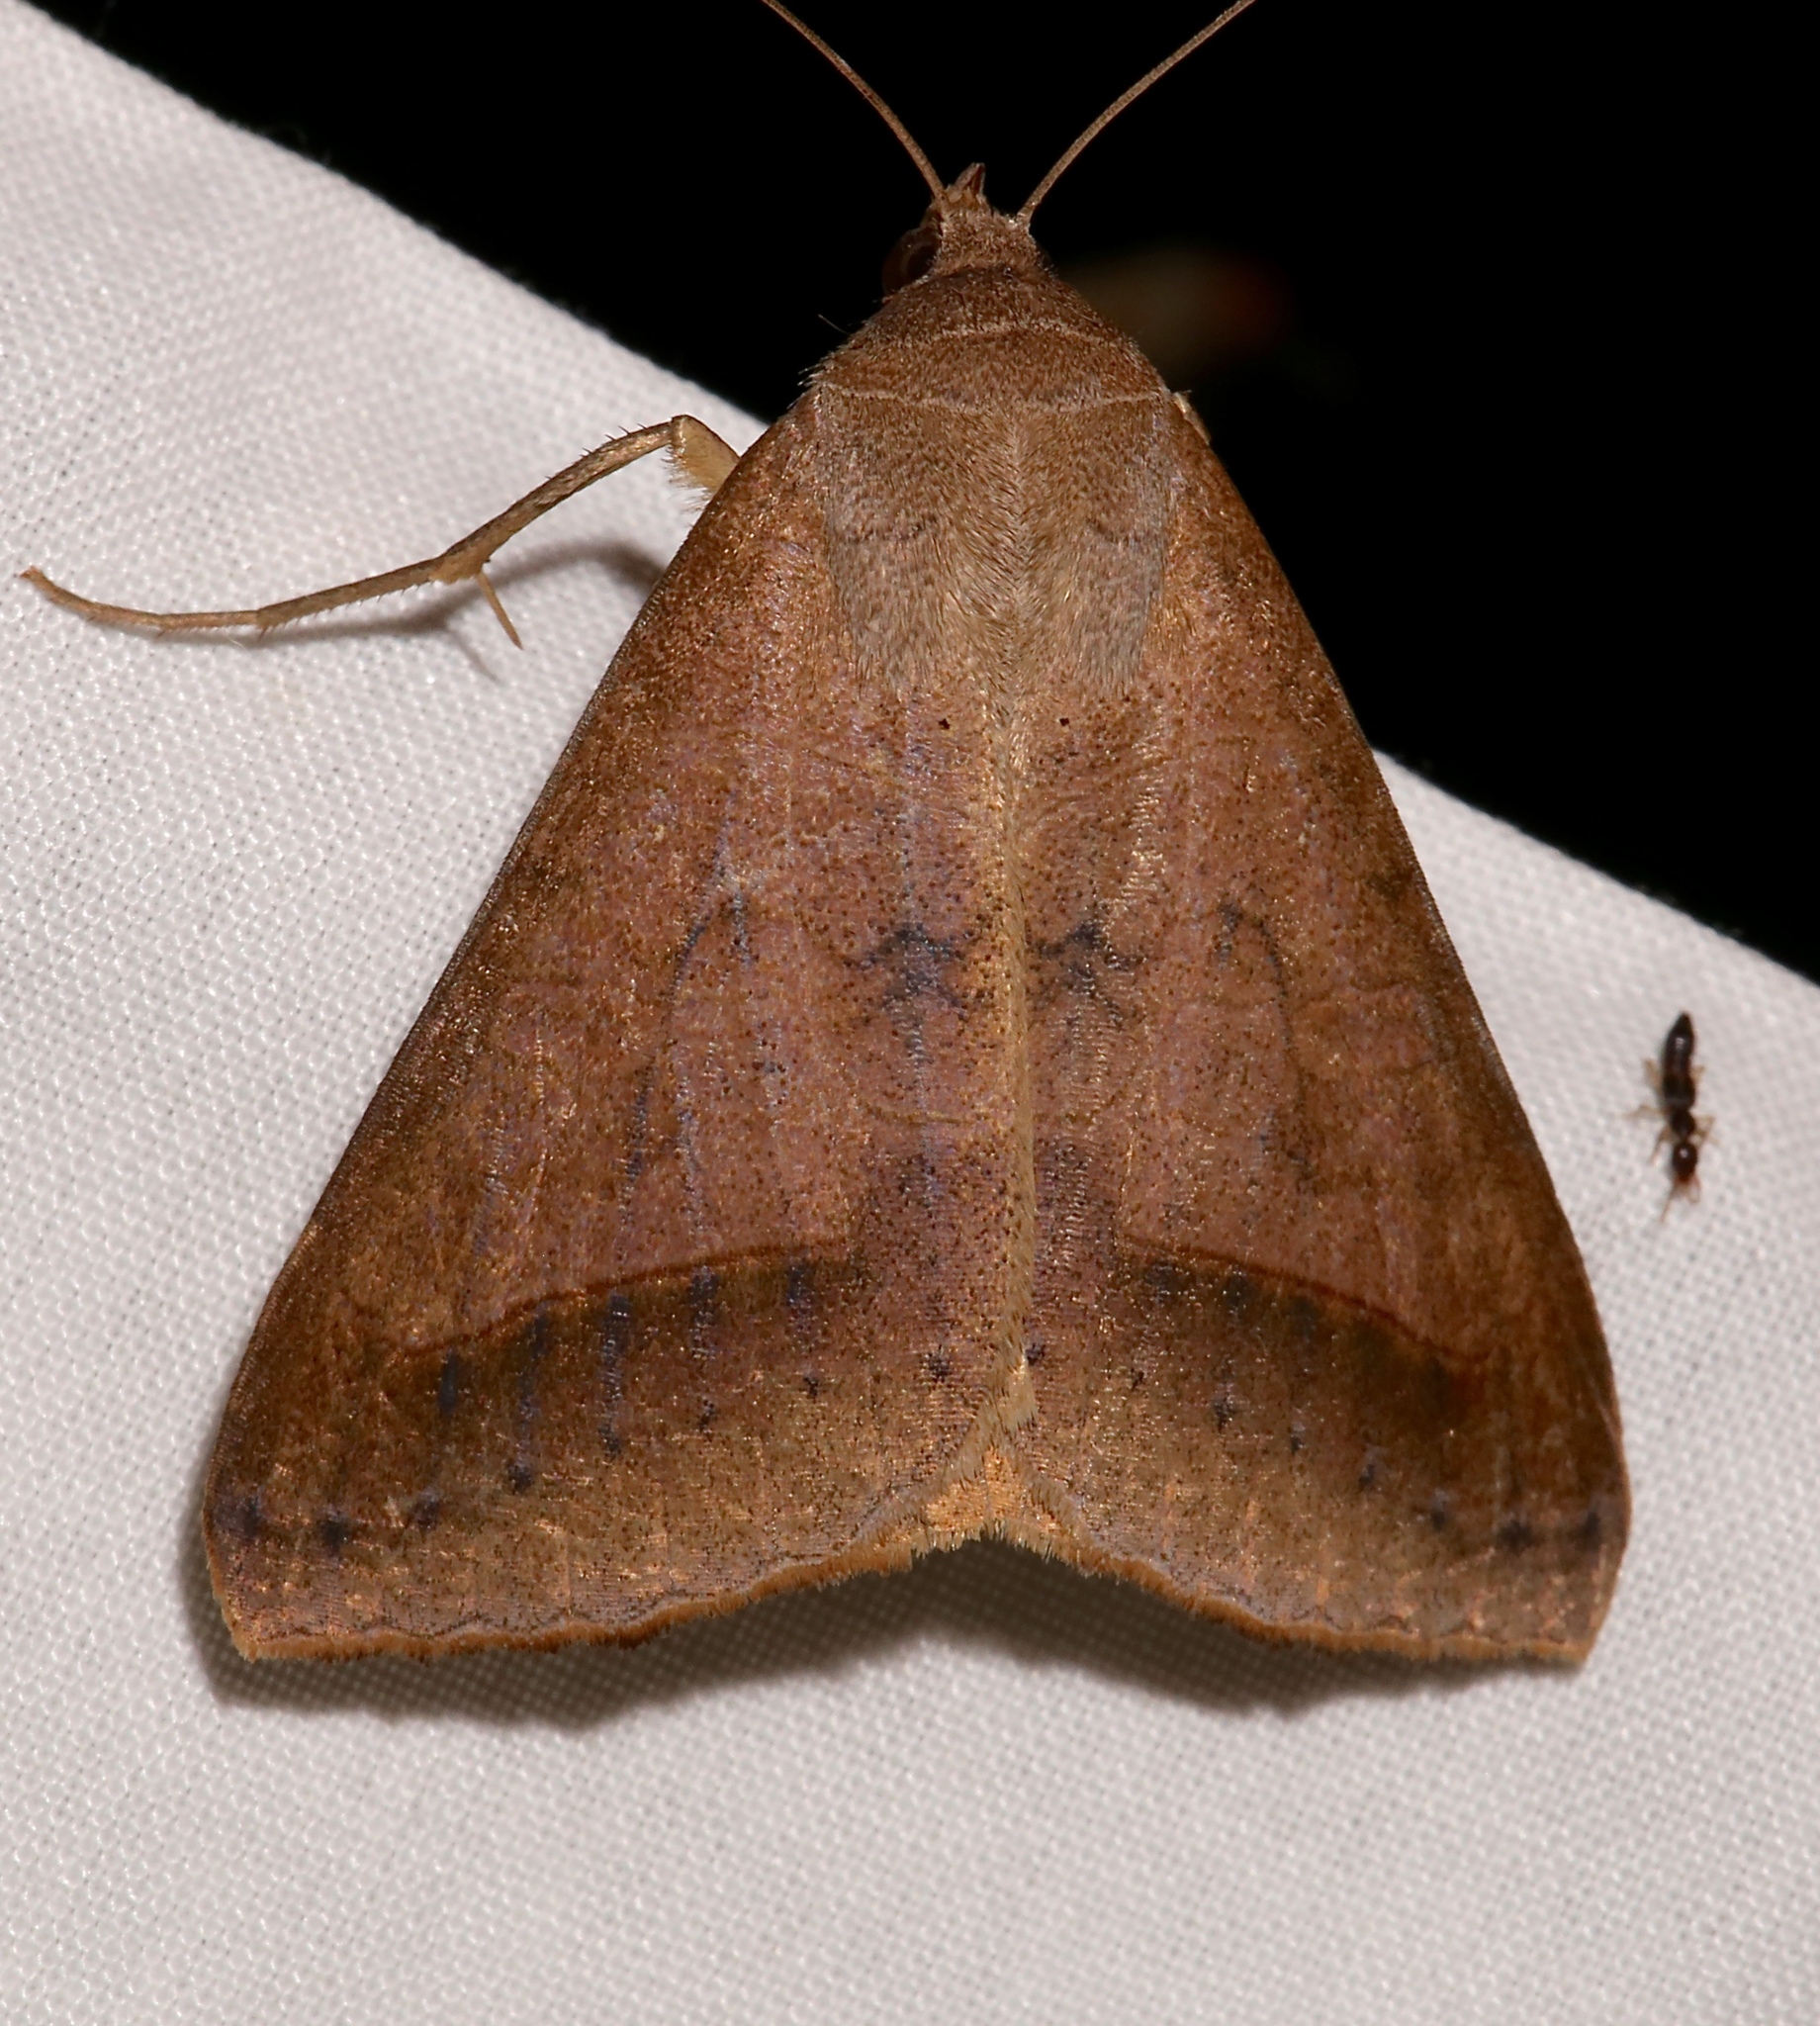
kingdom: Animalia
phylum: Arthropoda
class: Insecta
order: Lepidoptera
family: Erebidae
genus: Mocis
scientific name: Mocis marcida
